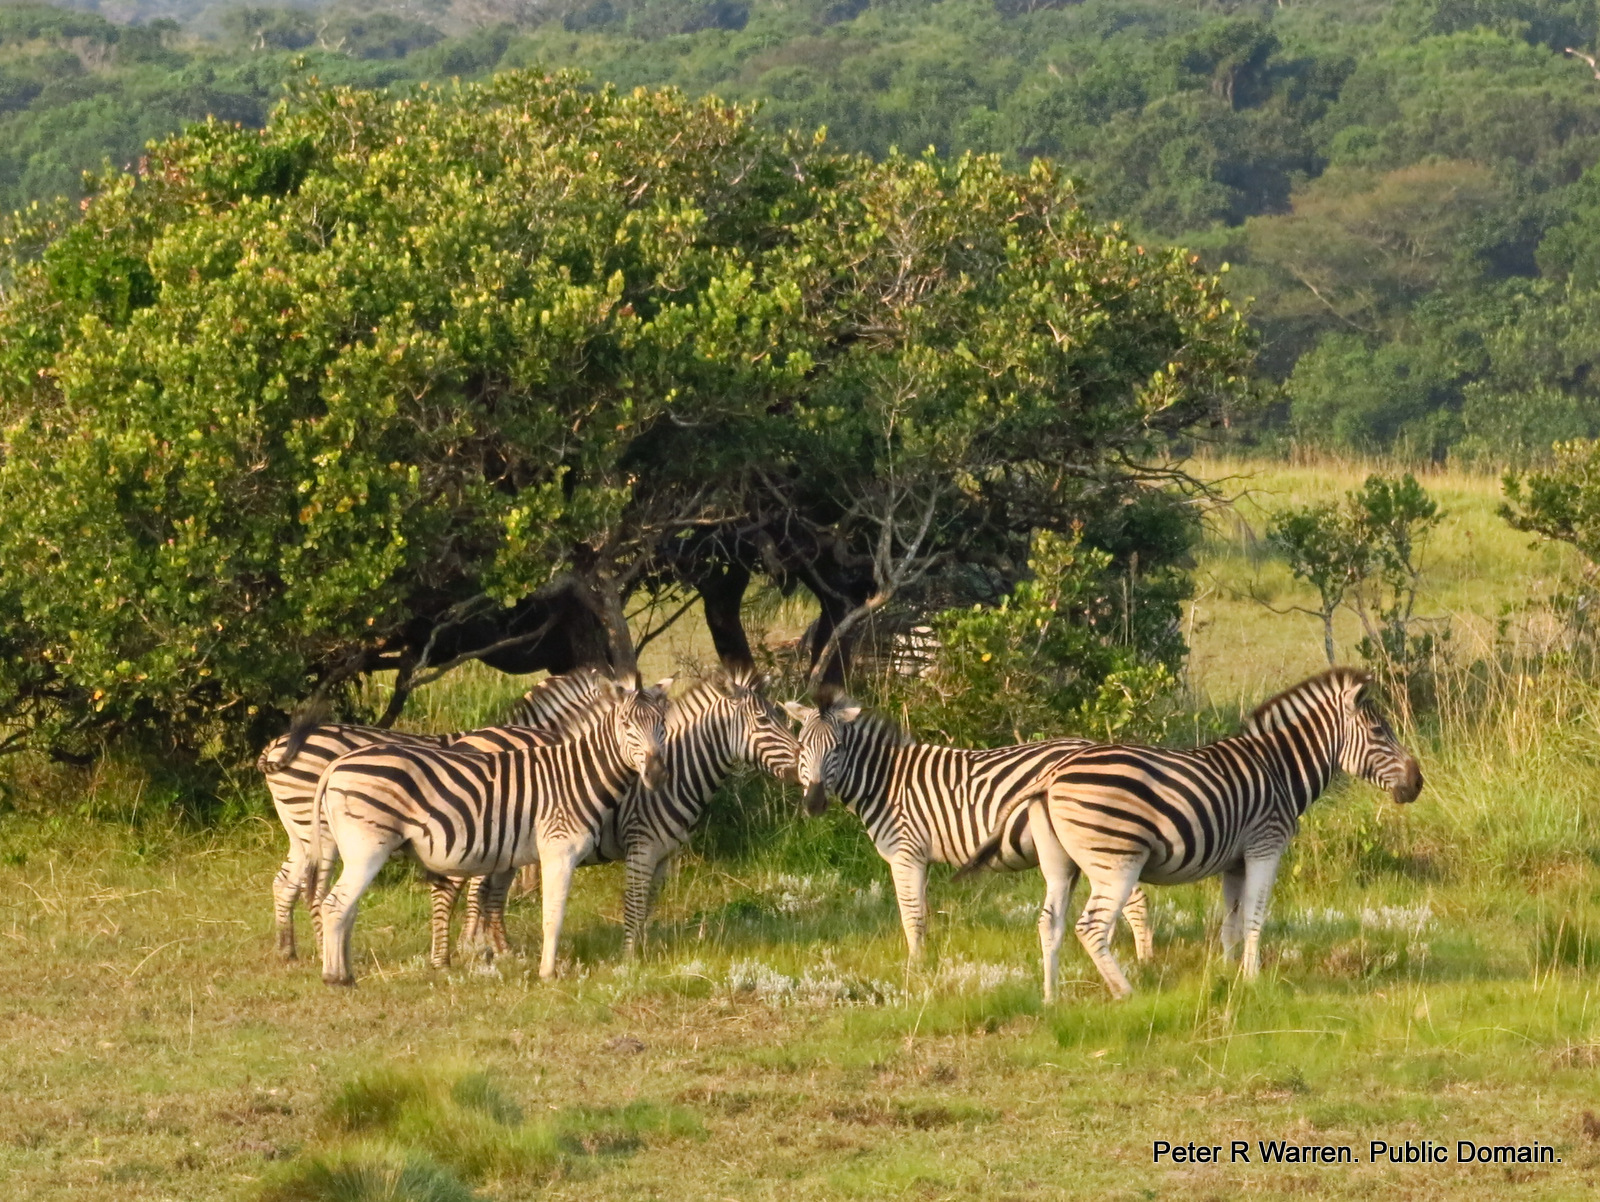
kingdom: Animalia
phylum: Chordata
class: Mammalia
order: Perissodactyla
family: Equidae
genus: Equus
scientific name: Equus quagga
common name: Plains zebra
